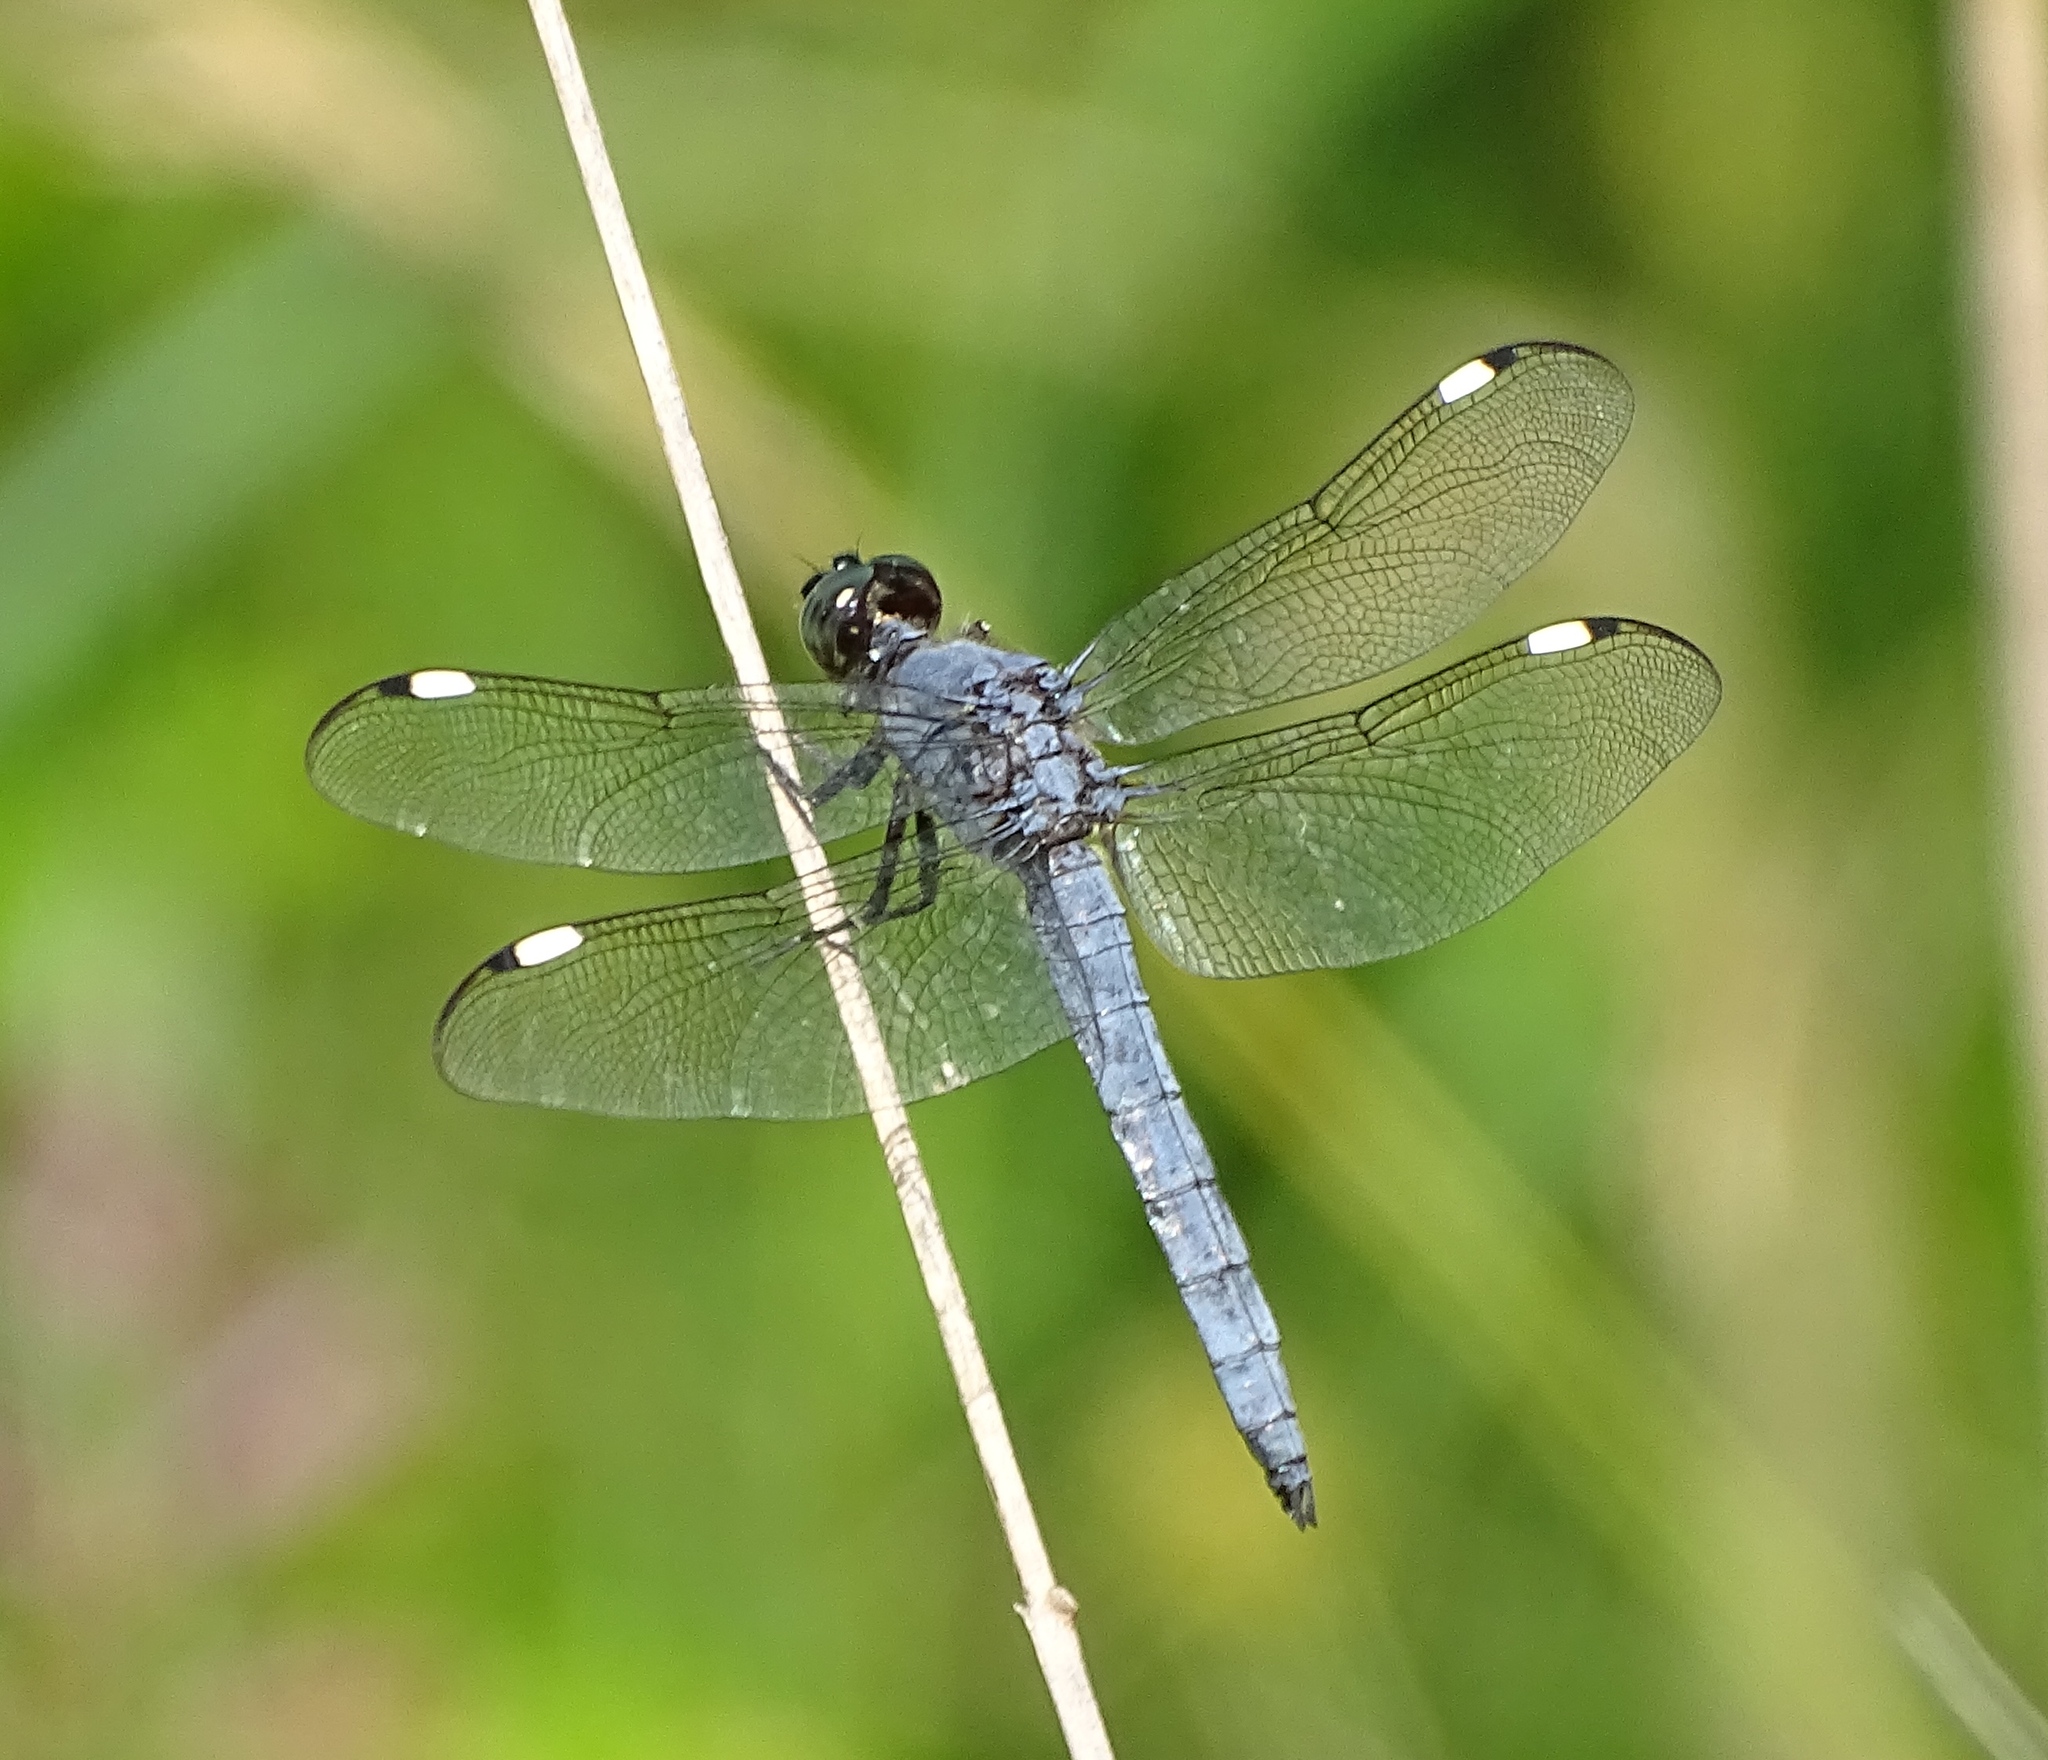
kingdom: Animalia
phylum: Arthropoda
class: Insecta
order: Odonata
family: Libellulidae
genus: Libellula
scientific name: Libellula cyanea
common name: Spangled skimmer
